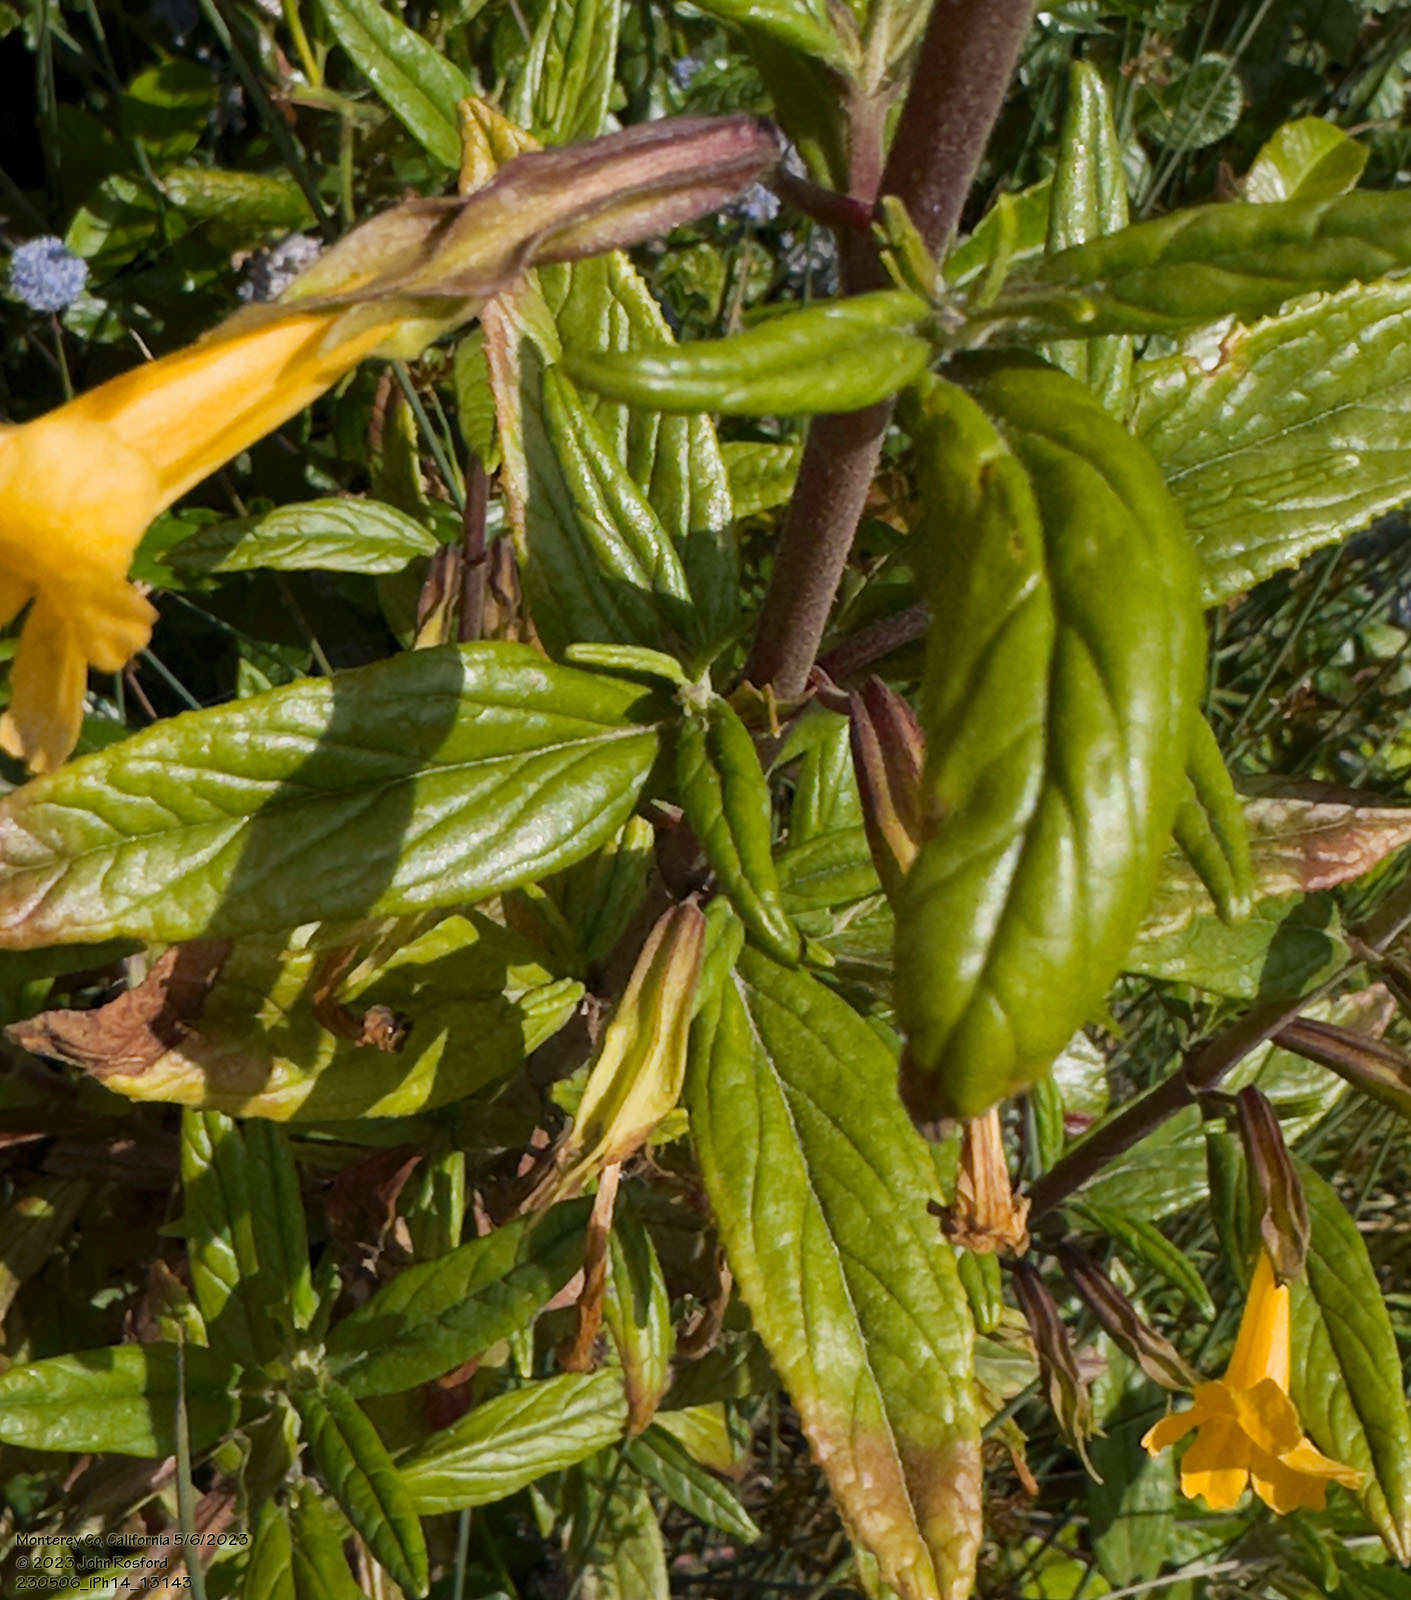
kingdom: Plantae
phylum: Tracheophyta
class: Magnoliopsida
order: Lamiales
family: Phrymaceae
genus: Diplacus
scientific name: Diplacus aurantiacus
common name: Bush monkey-flower
